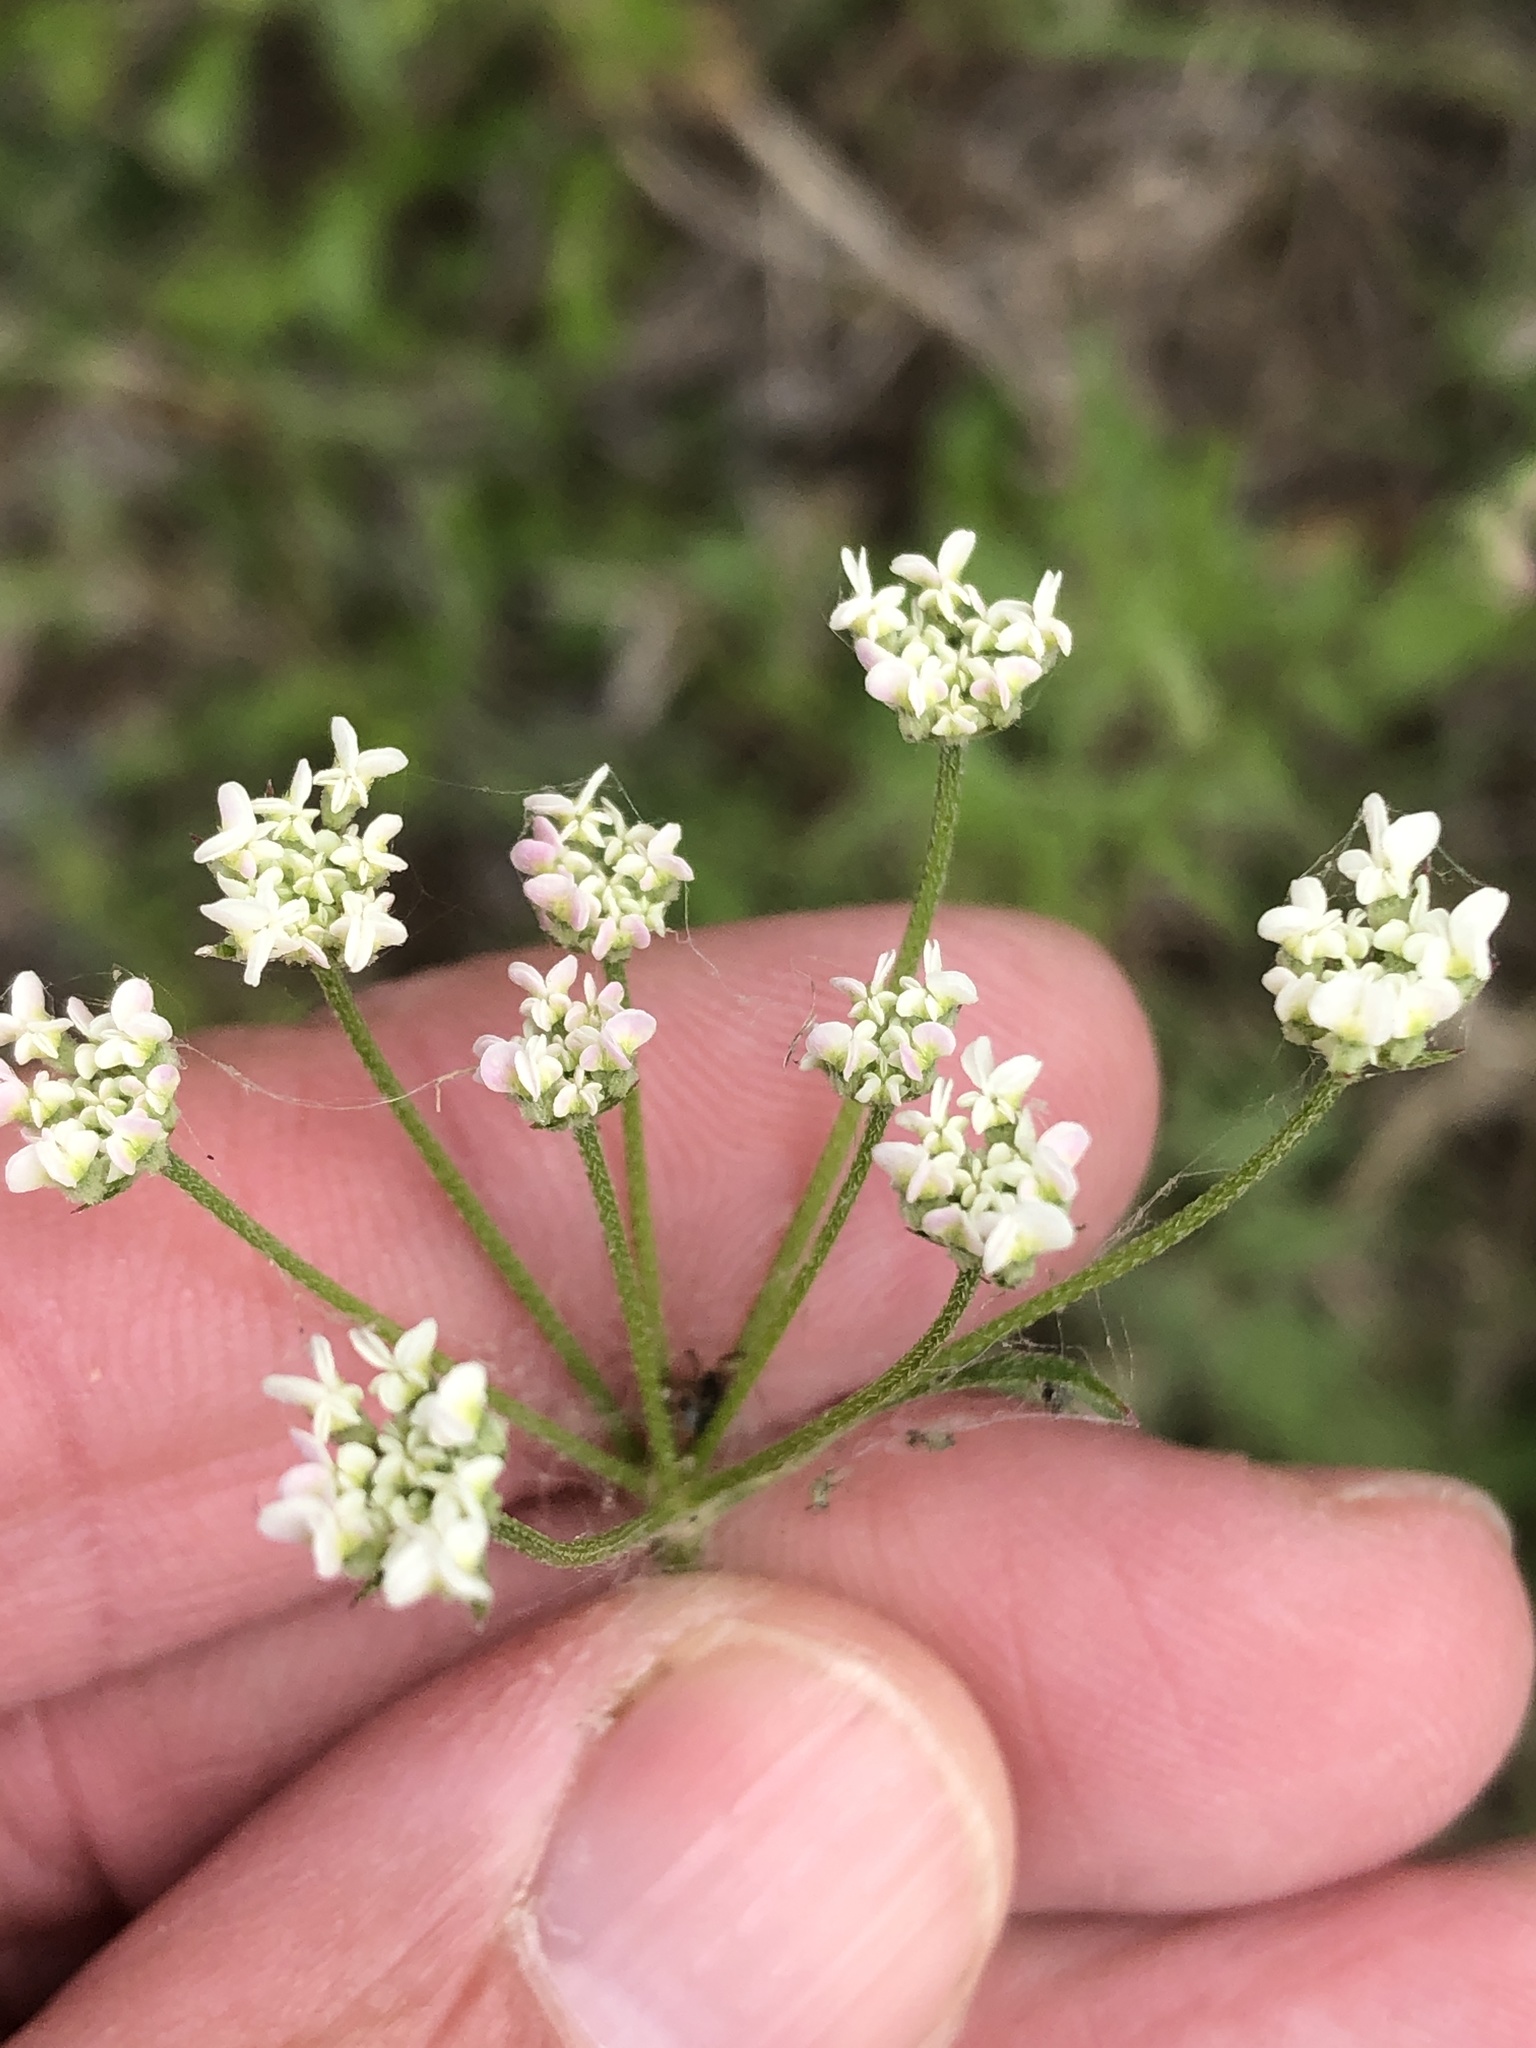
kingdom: Plantae
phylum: Tracheophyta
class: Magnoliopsida
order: Apiales
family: Apiaceae
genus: Torilis
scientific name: Torilis arvensis
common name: Spreading hedge-parsley
